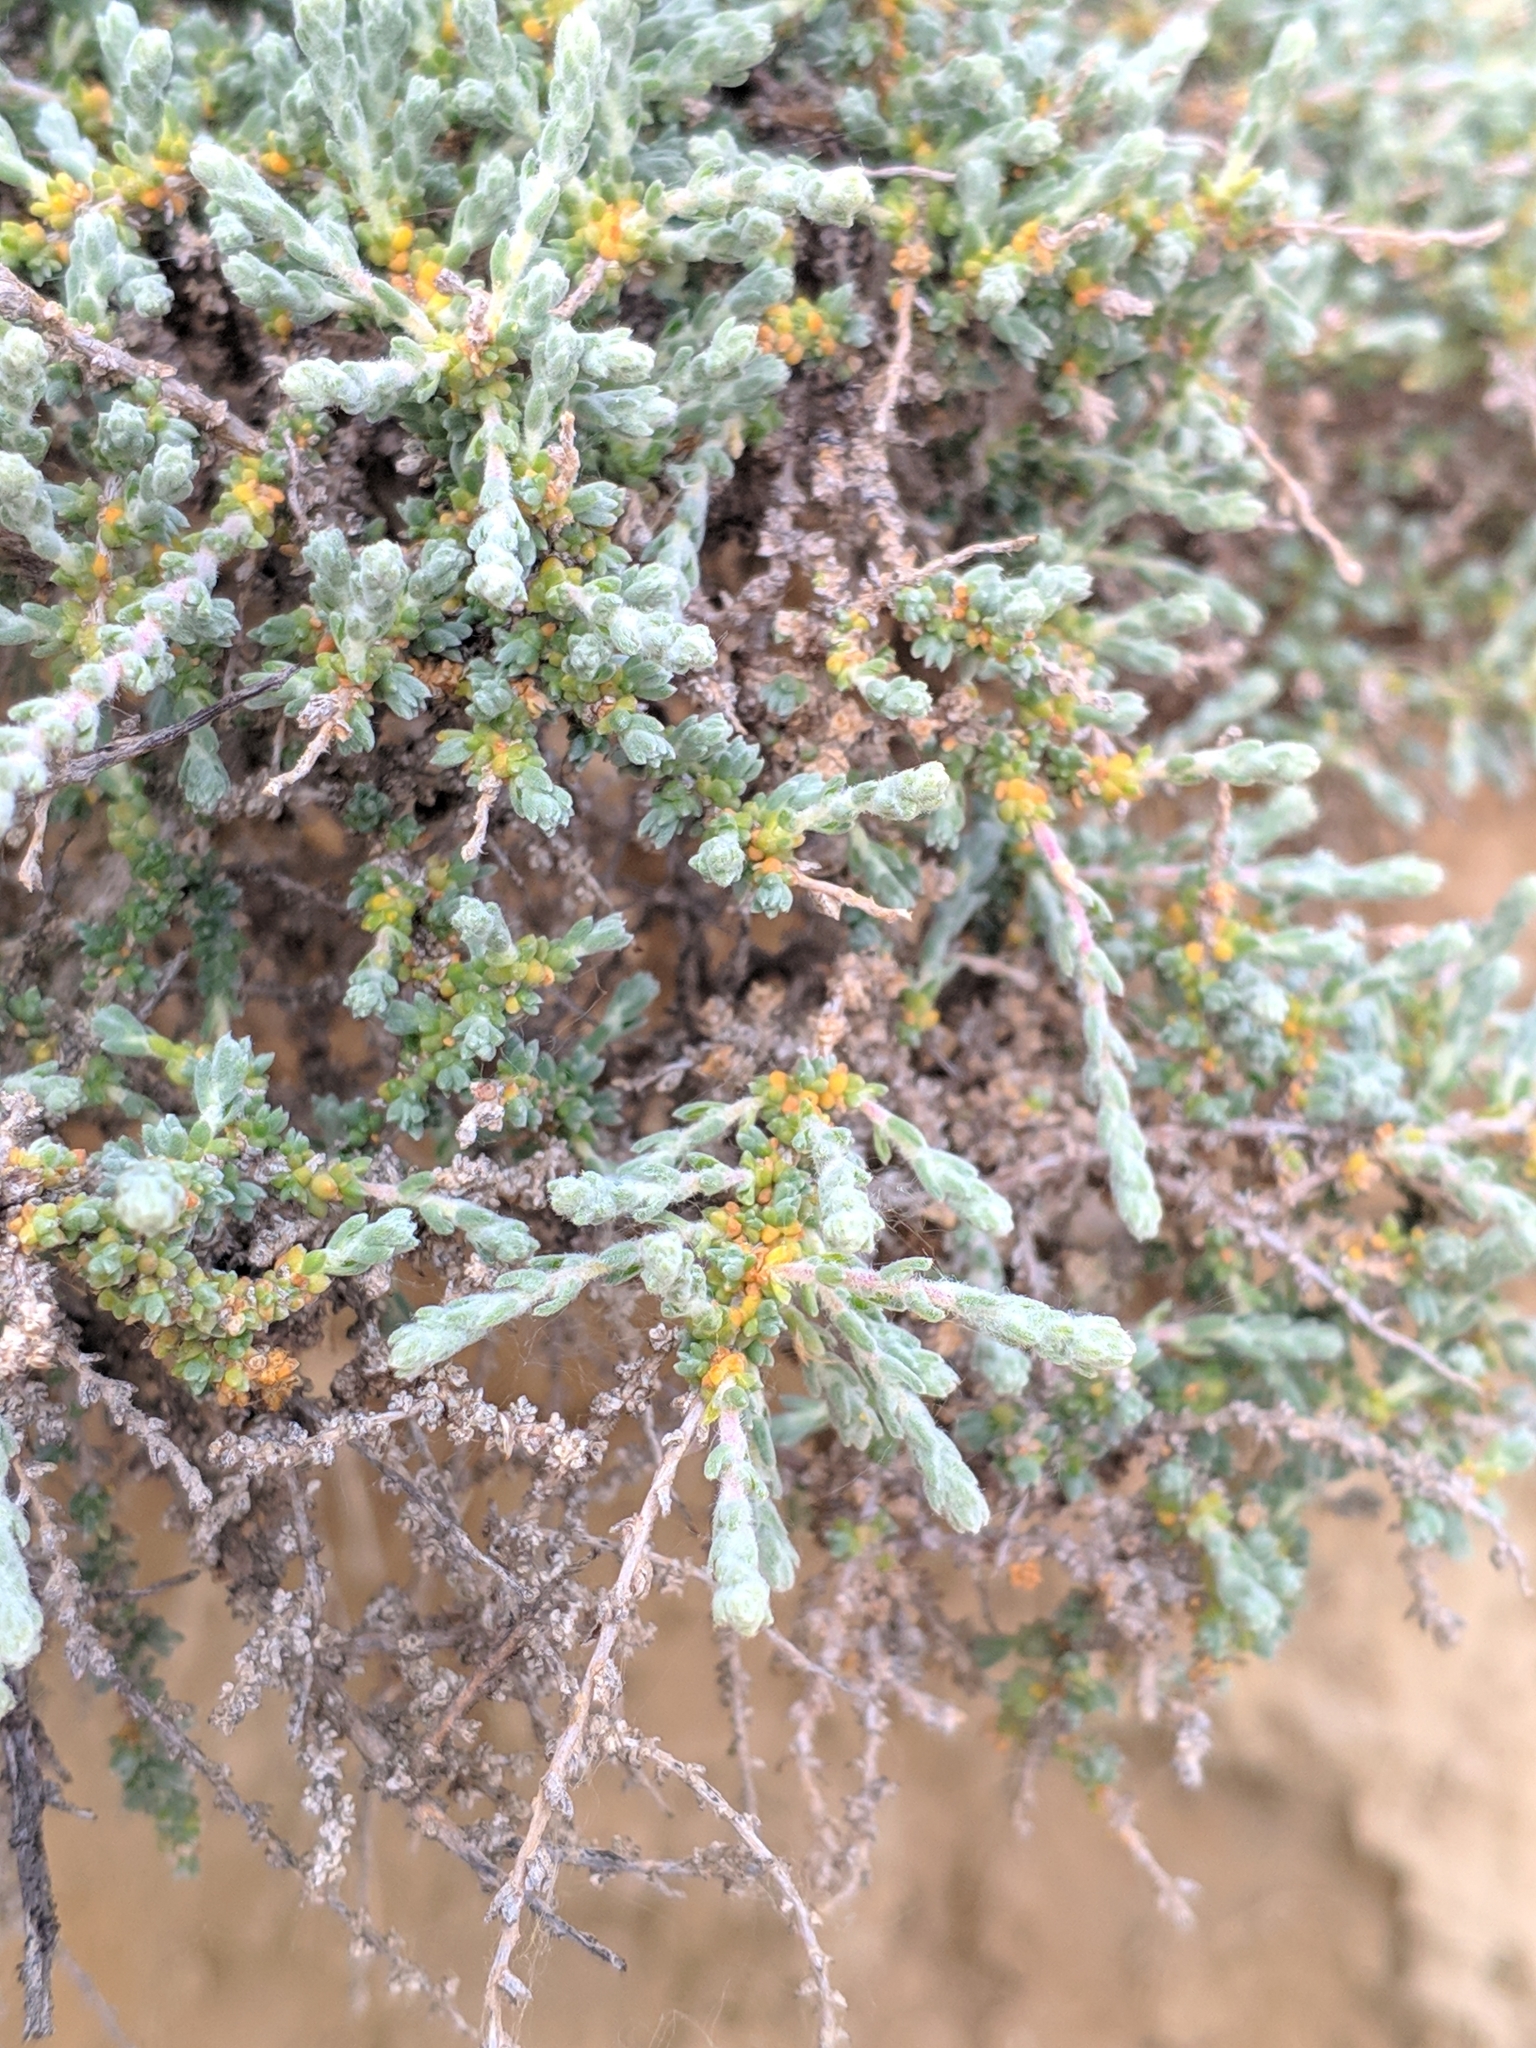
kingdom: Plantae
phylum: Tracheophyta
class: Magnoliopsida
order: Caryophyllales
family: Amaranthaceae
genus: Nitrosalsola
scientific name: Nitrosalsola vermiculata
